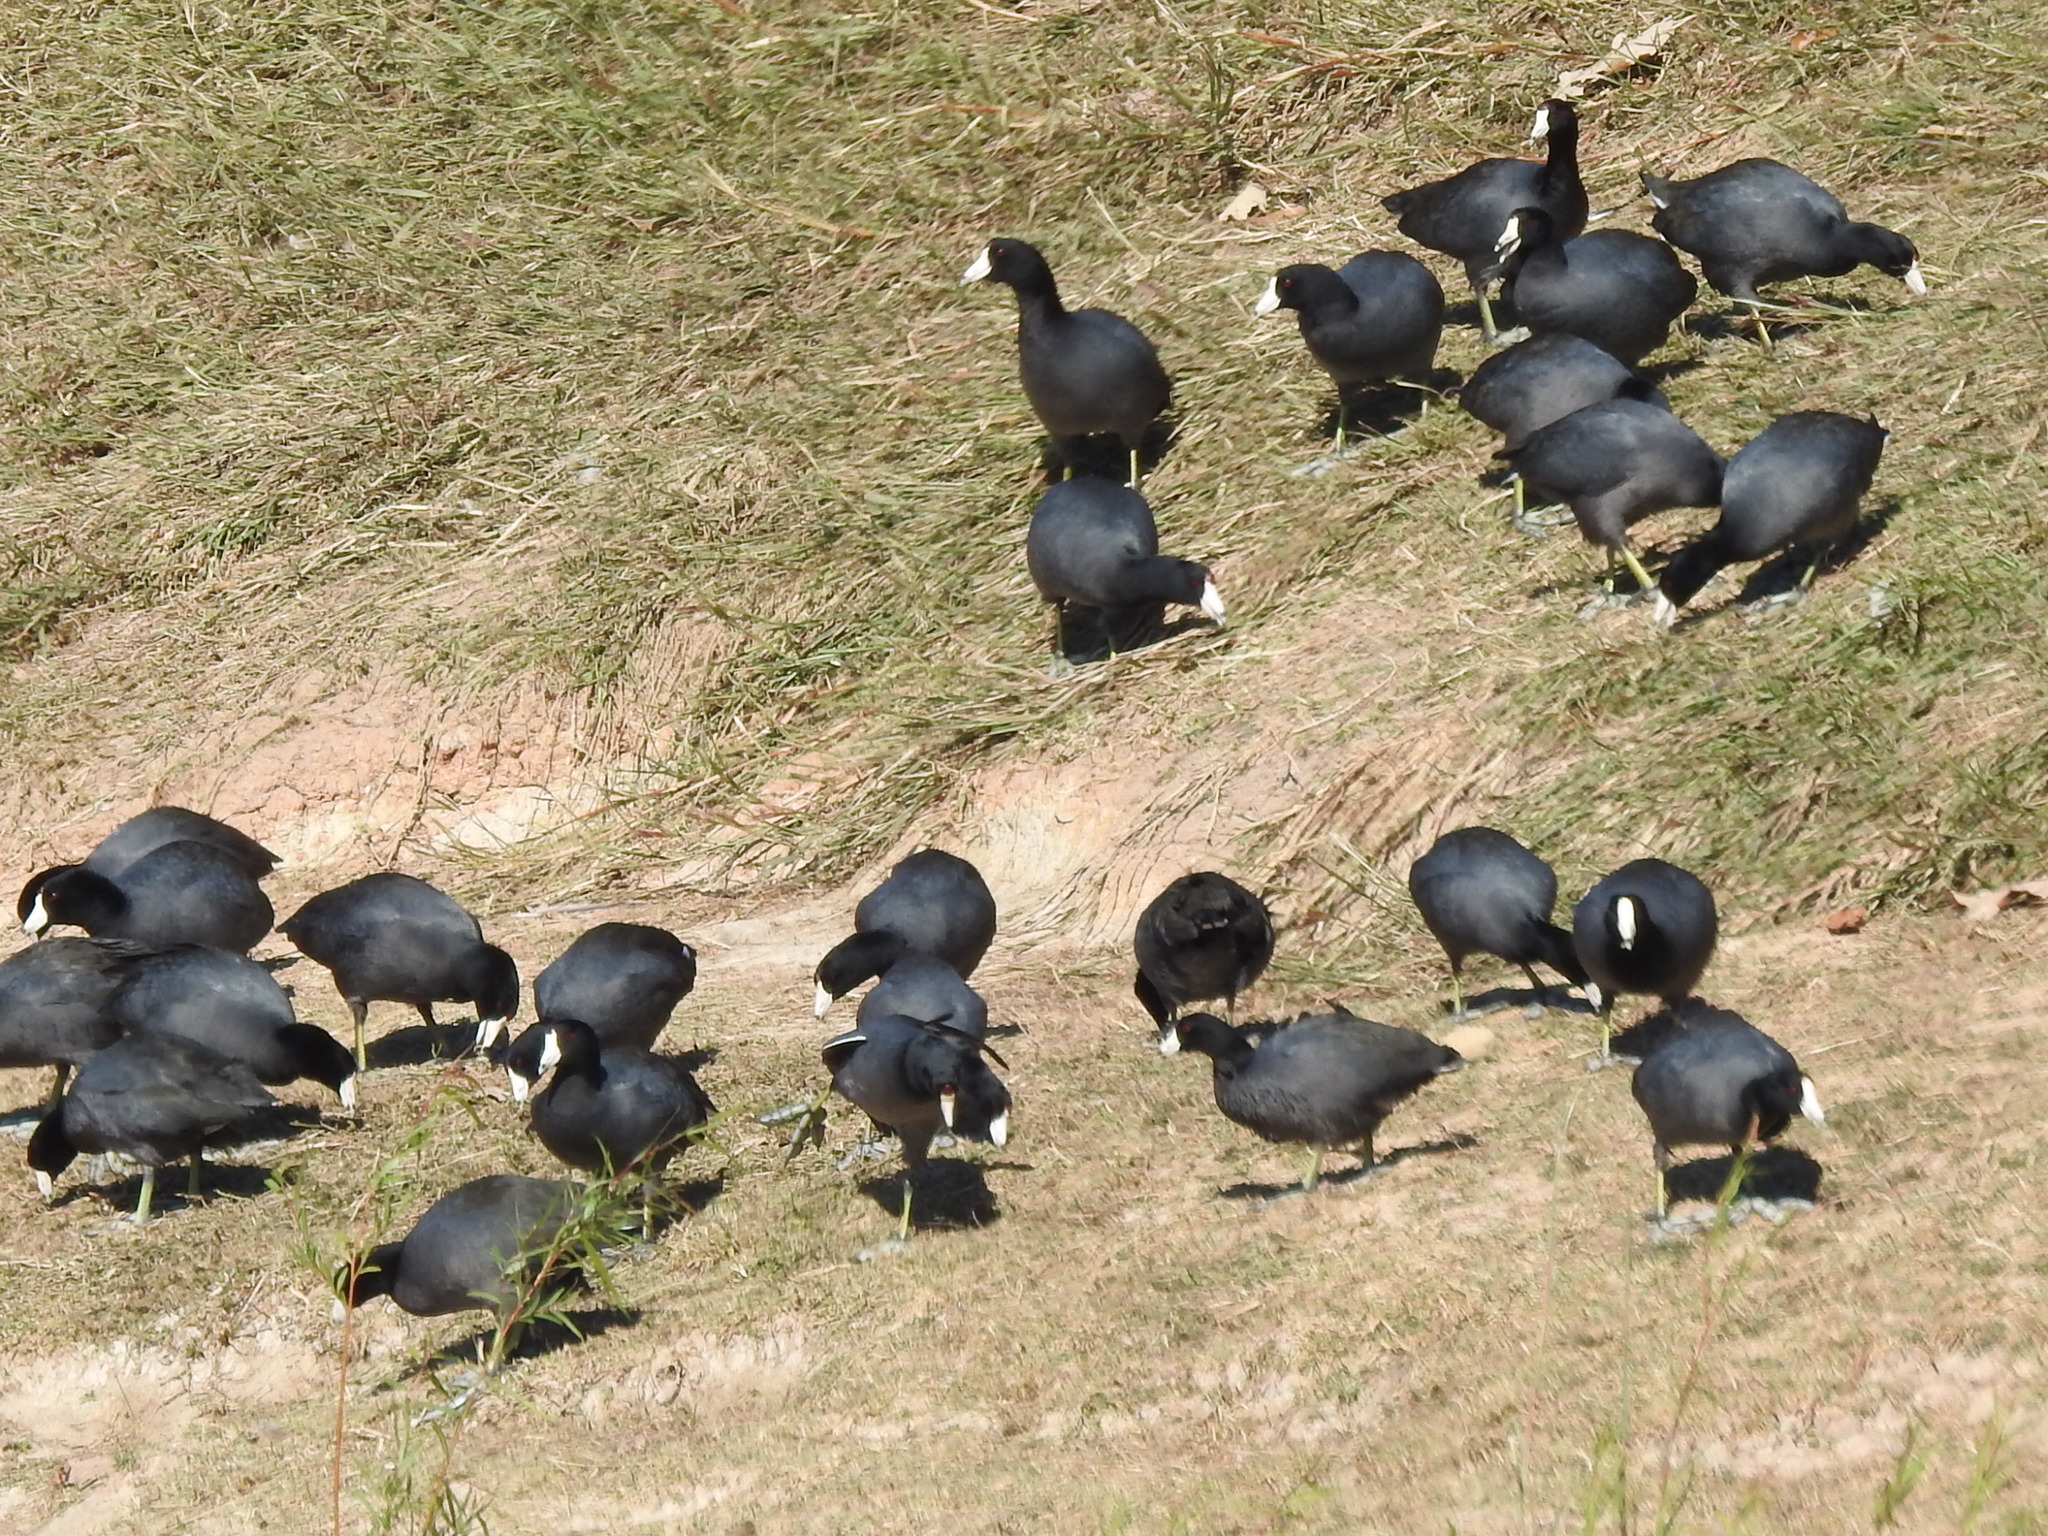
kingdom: Animalia
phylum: Chordata
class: Aves
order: Gruiformes
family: Rallidae
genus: Fulica
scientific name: Fulica americana
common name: American coot
